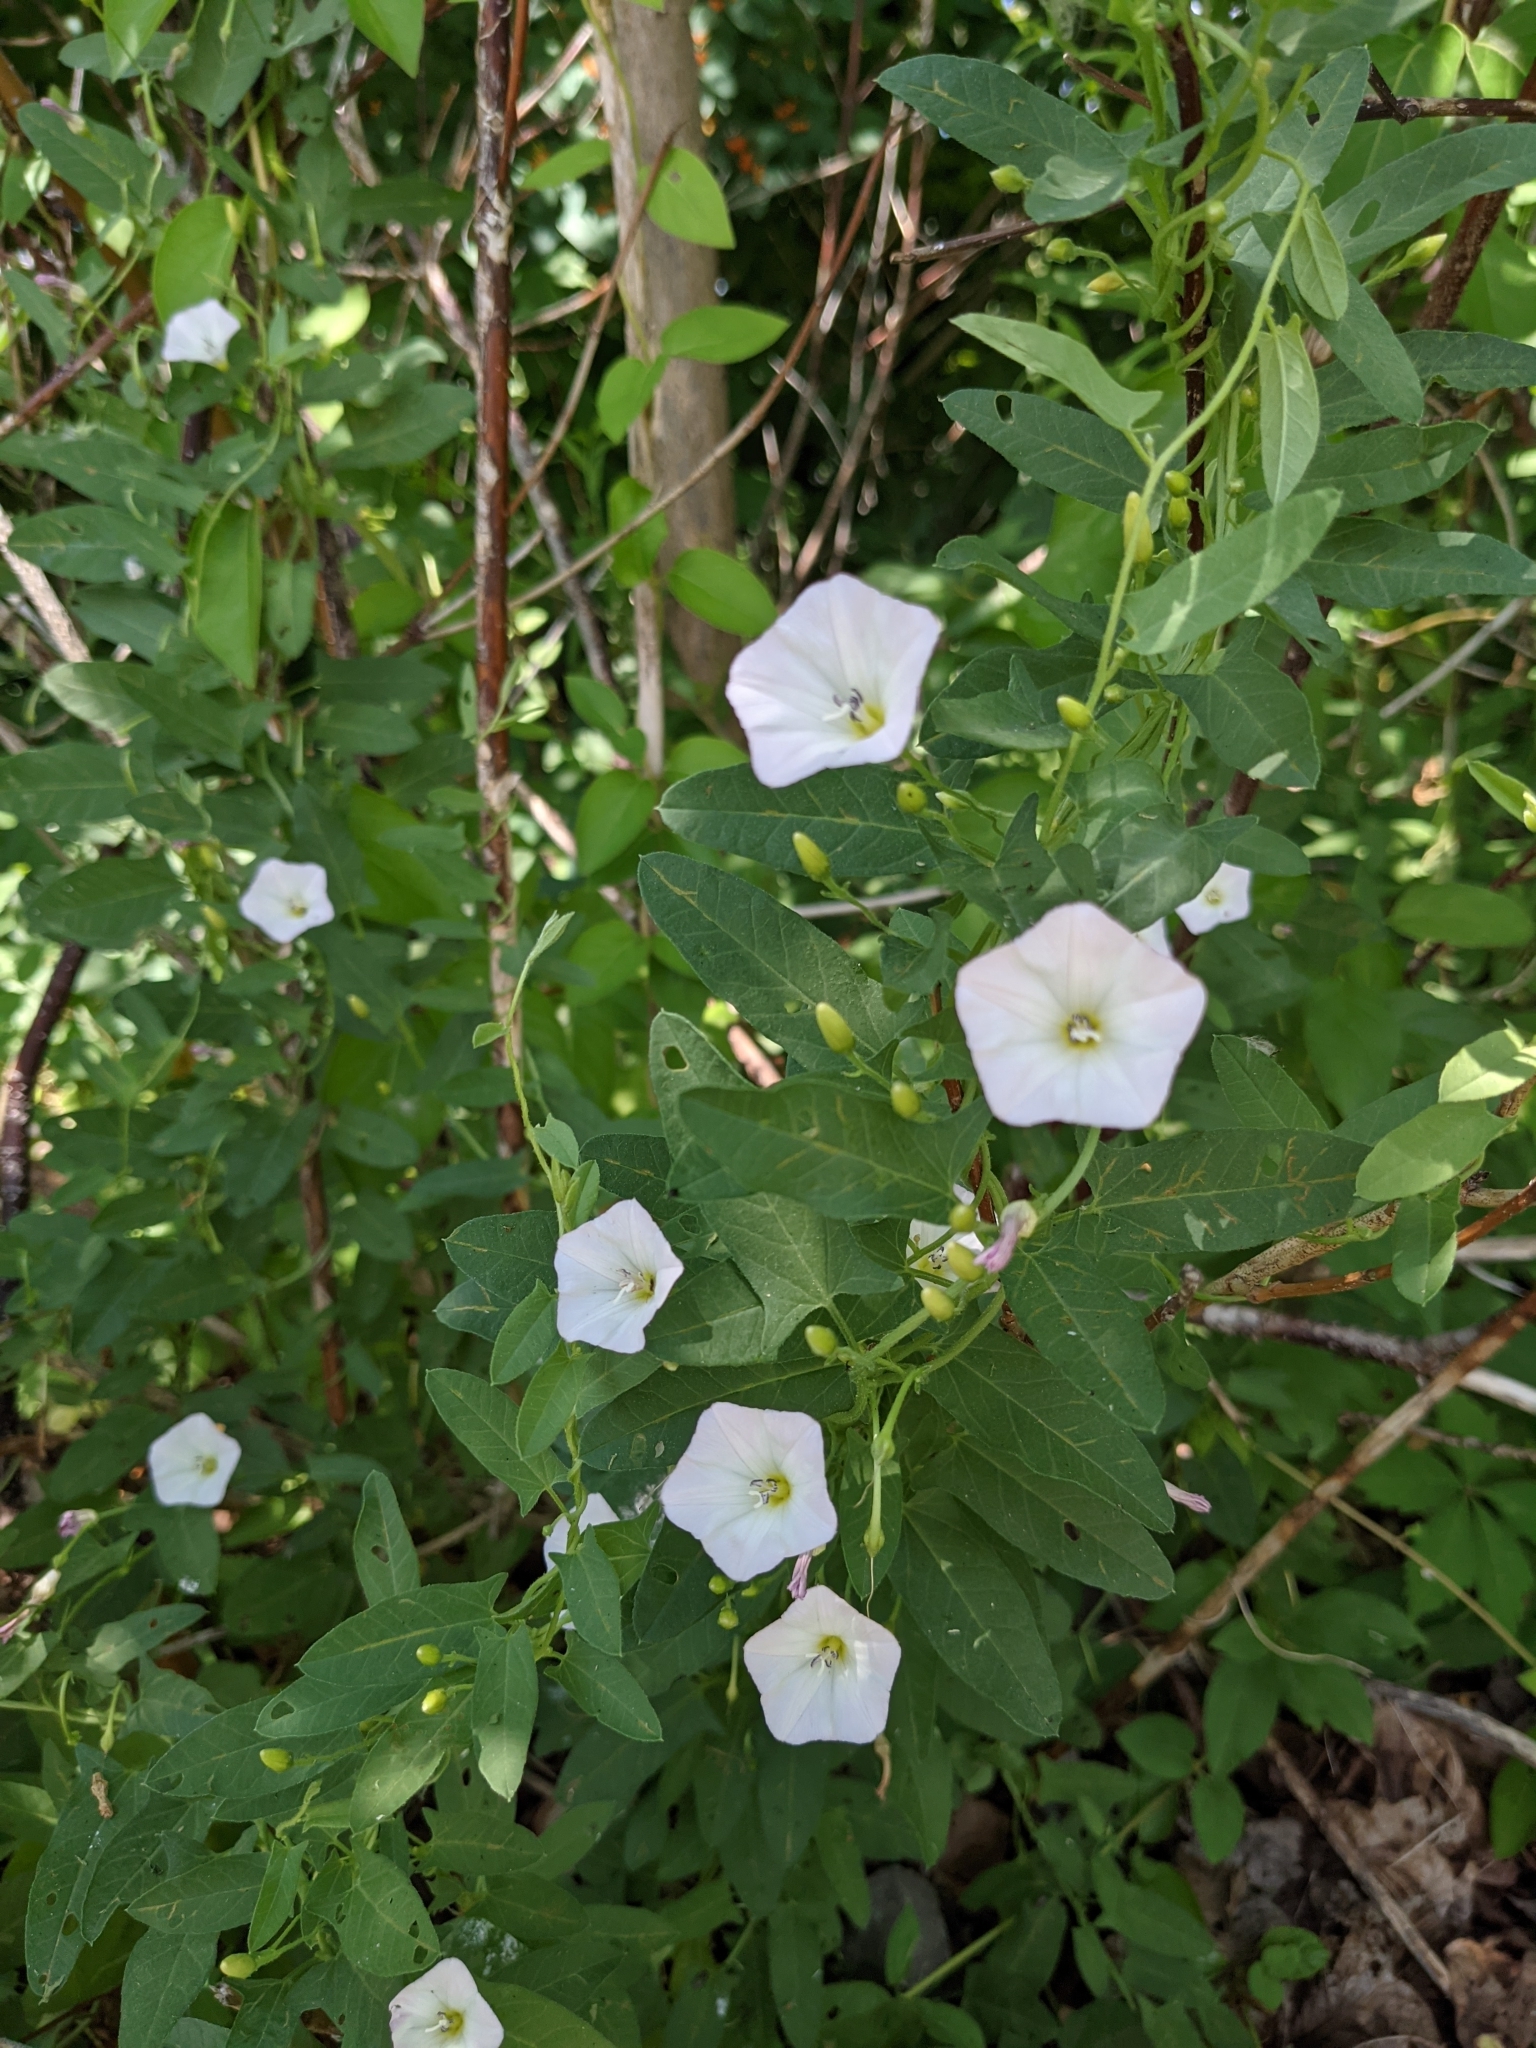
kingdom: Plantae
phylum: Tracheophyta
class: Magnoliopsida
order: Solanales
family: Convolvulaceae
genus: Convolvulus
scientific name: Convolvulus arvensis
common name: Field bindweed
